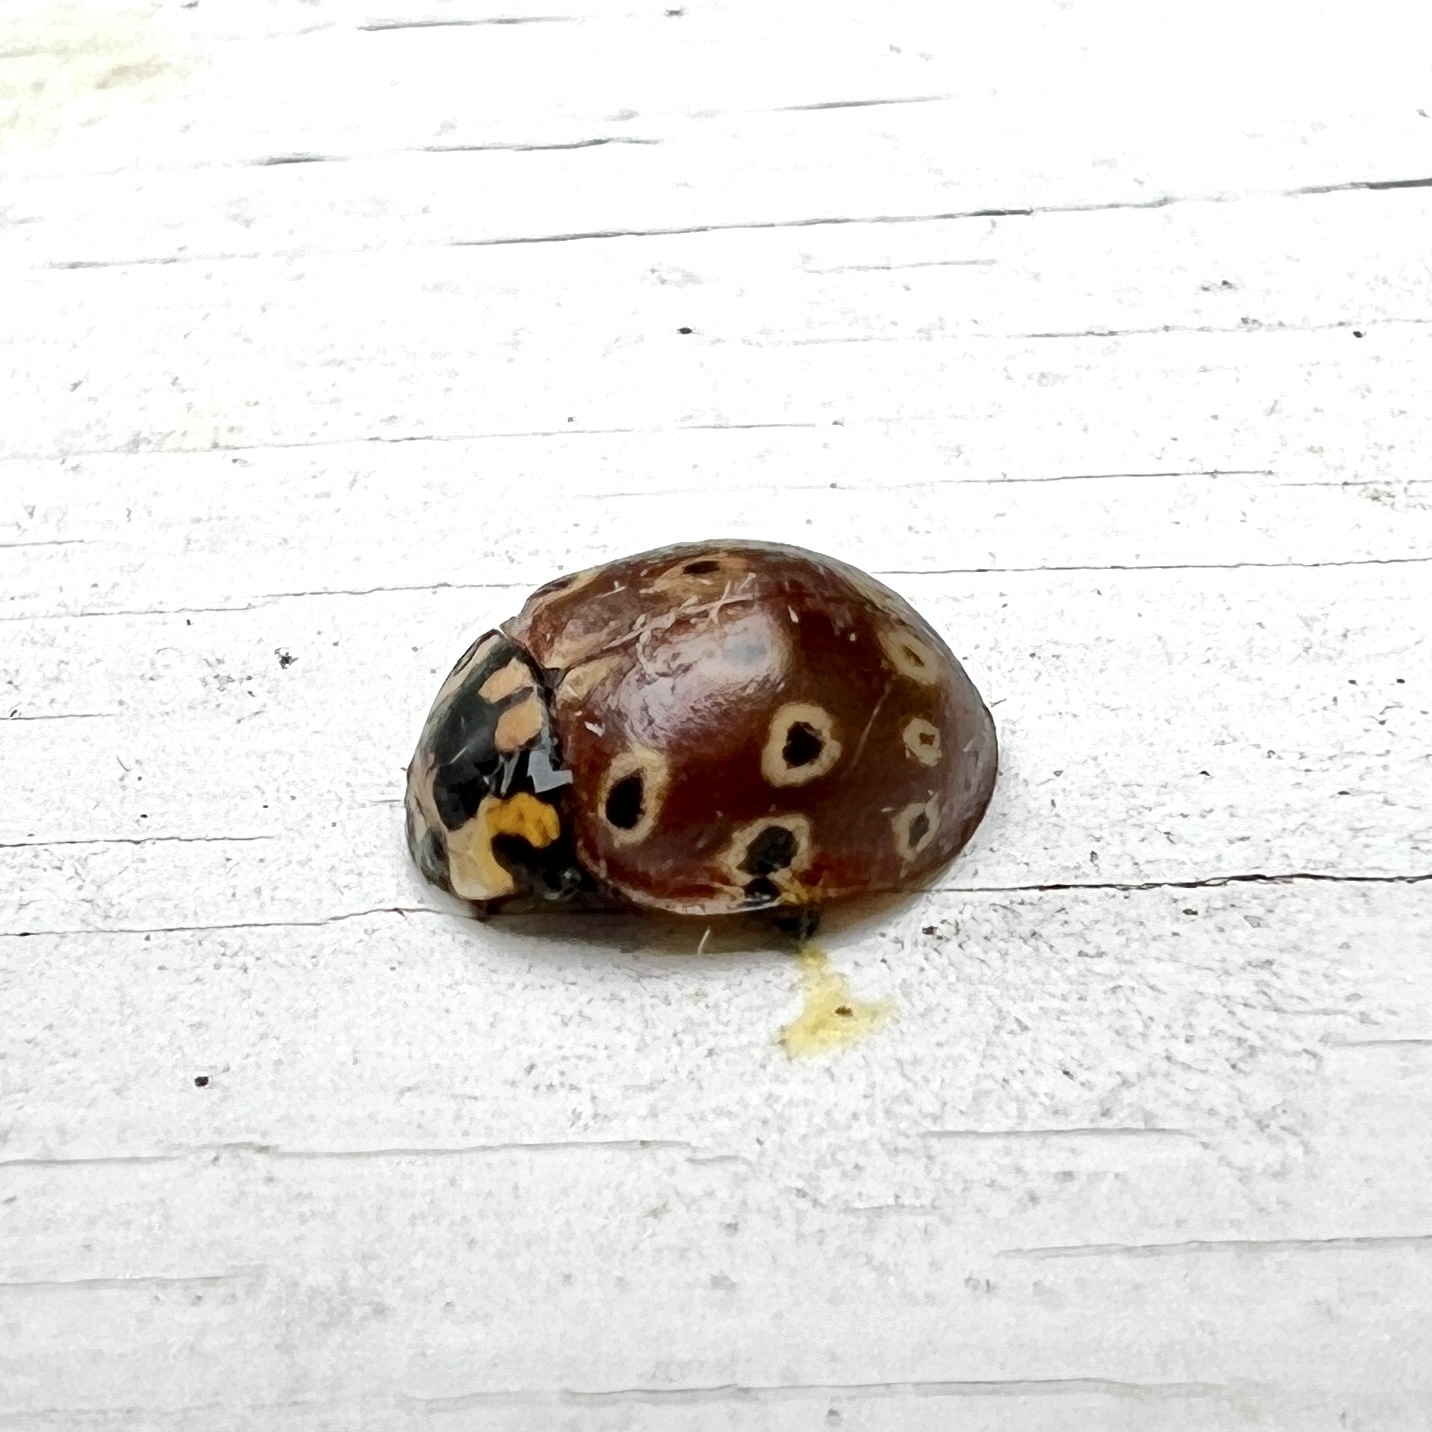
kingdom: Animalia
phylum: Arthropoda
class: Insecta
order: Coleoptera
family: Coccinellidae
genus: Anatis
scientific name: Anatis mali
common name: Eye-spotted lady beetle
